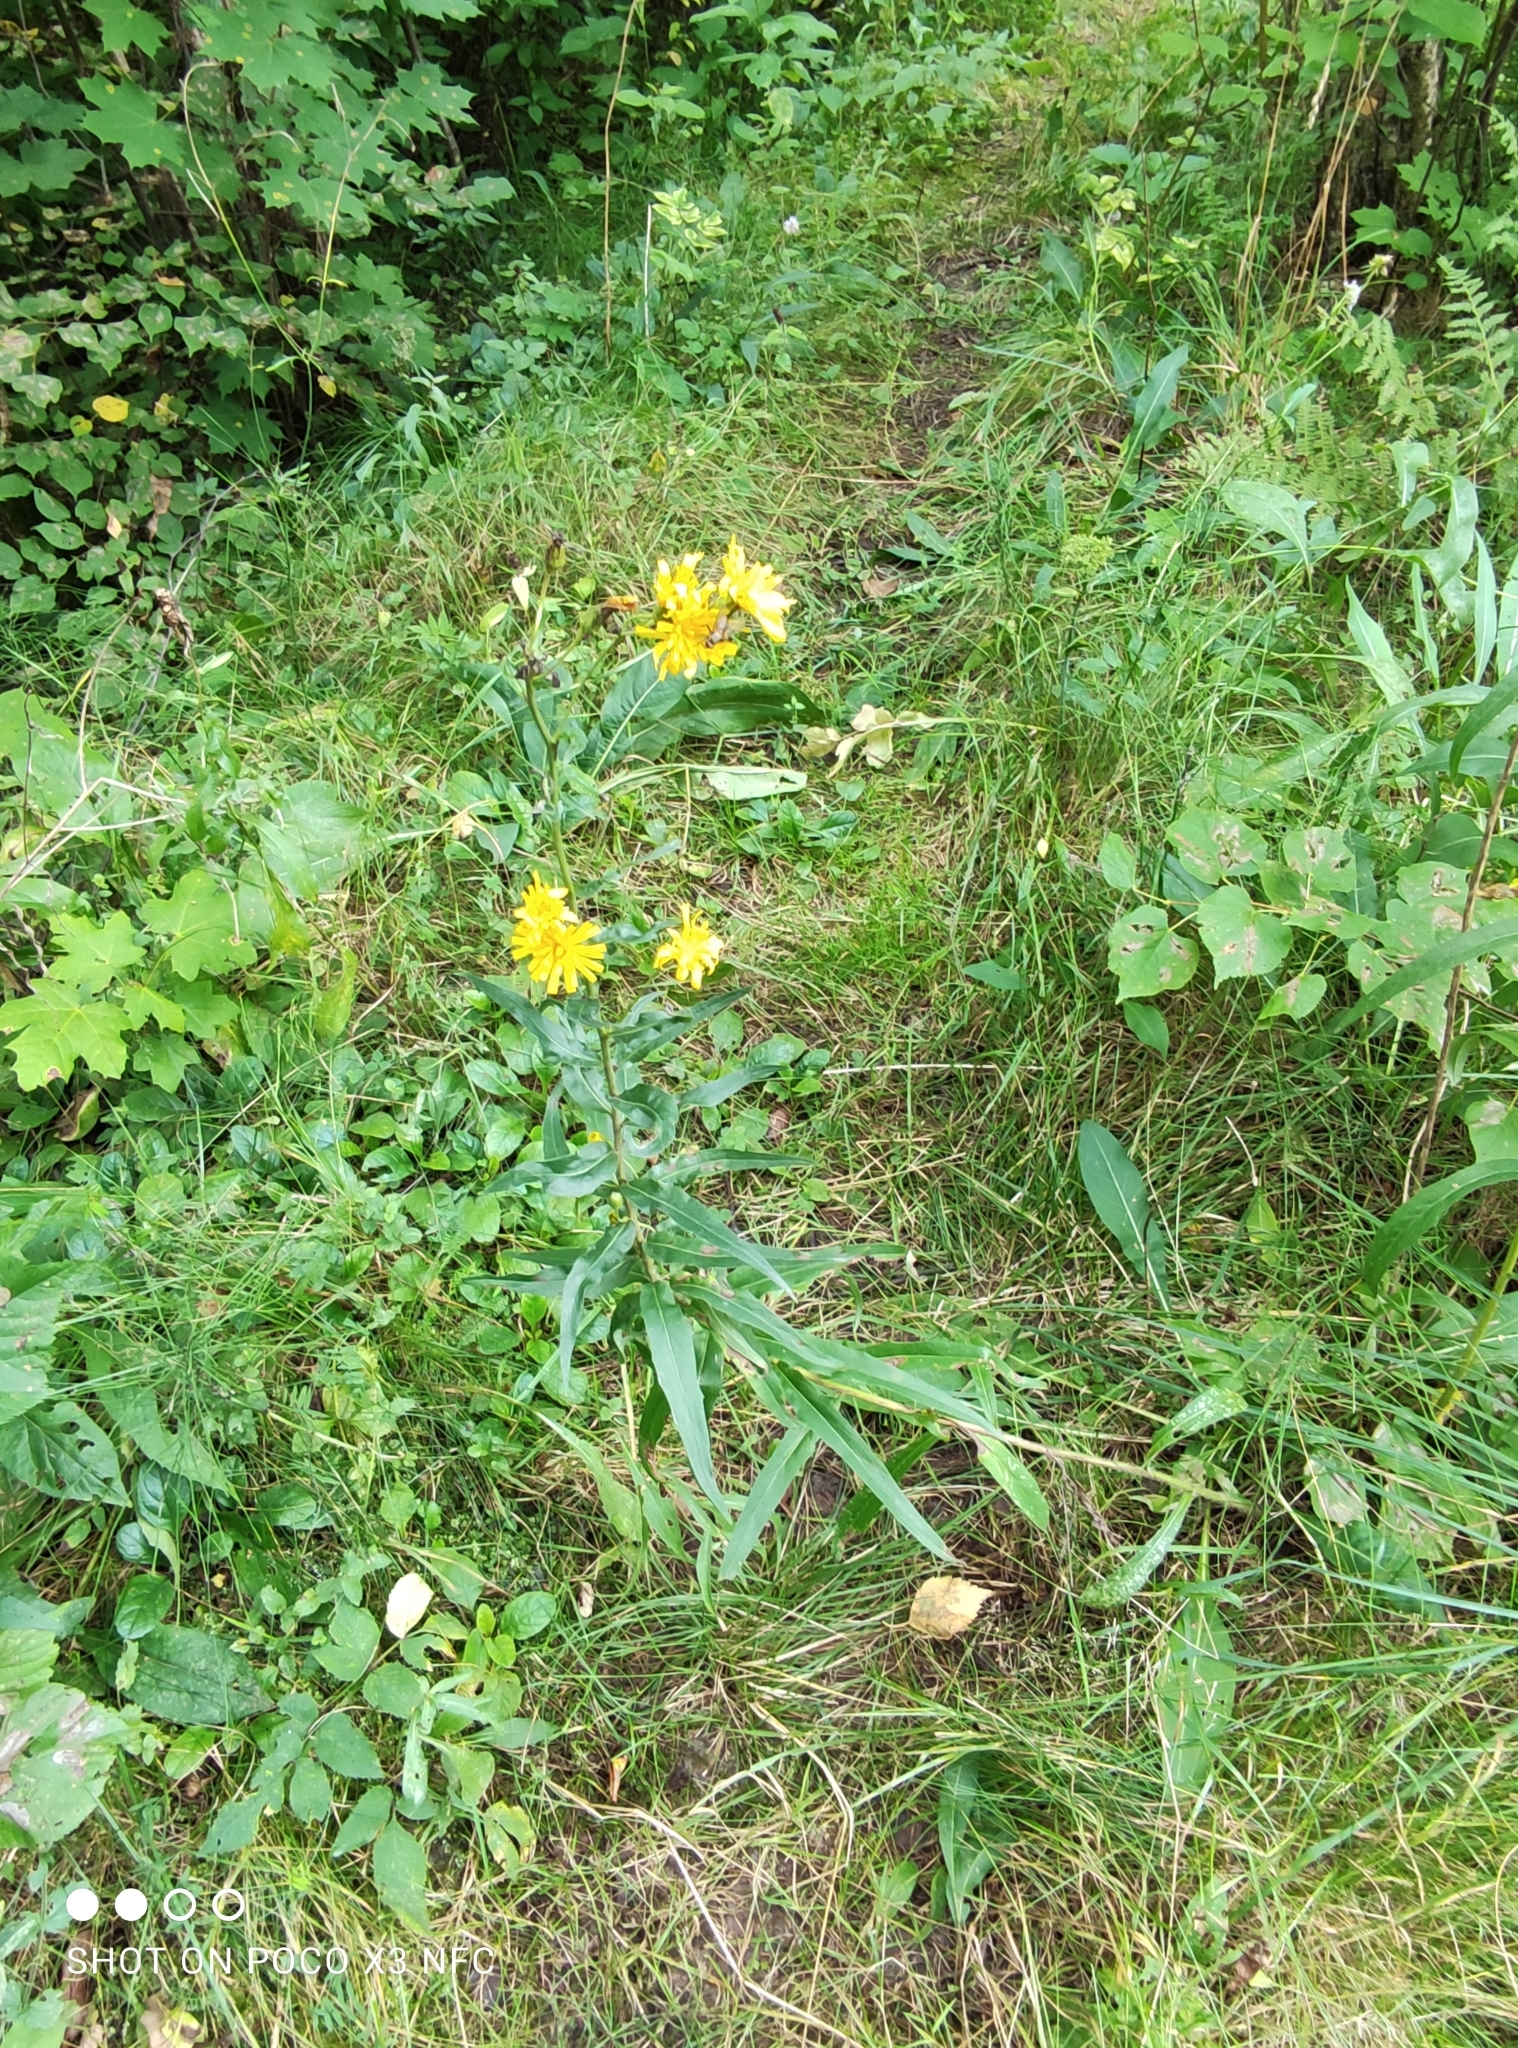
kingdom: Plantae
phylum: Tracheophyta
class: Magnoliopsida
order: Asterales
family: Asteraceae
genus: Hieracium
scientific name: Hieracium umbellatum
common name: Northern hawkweed
